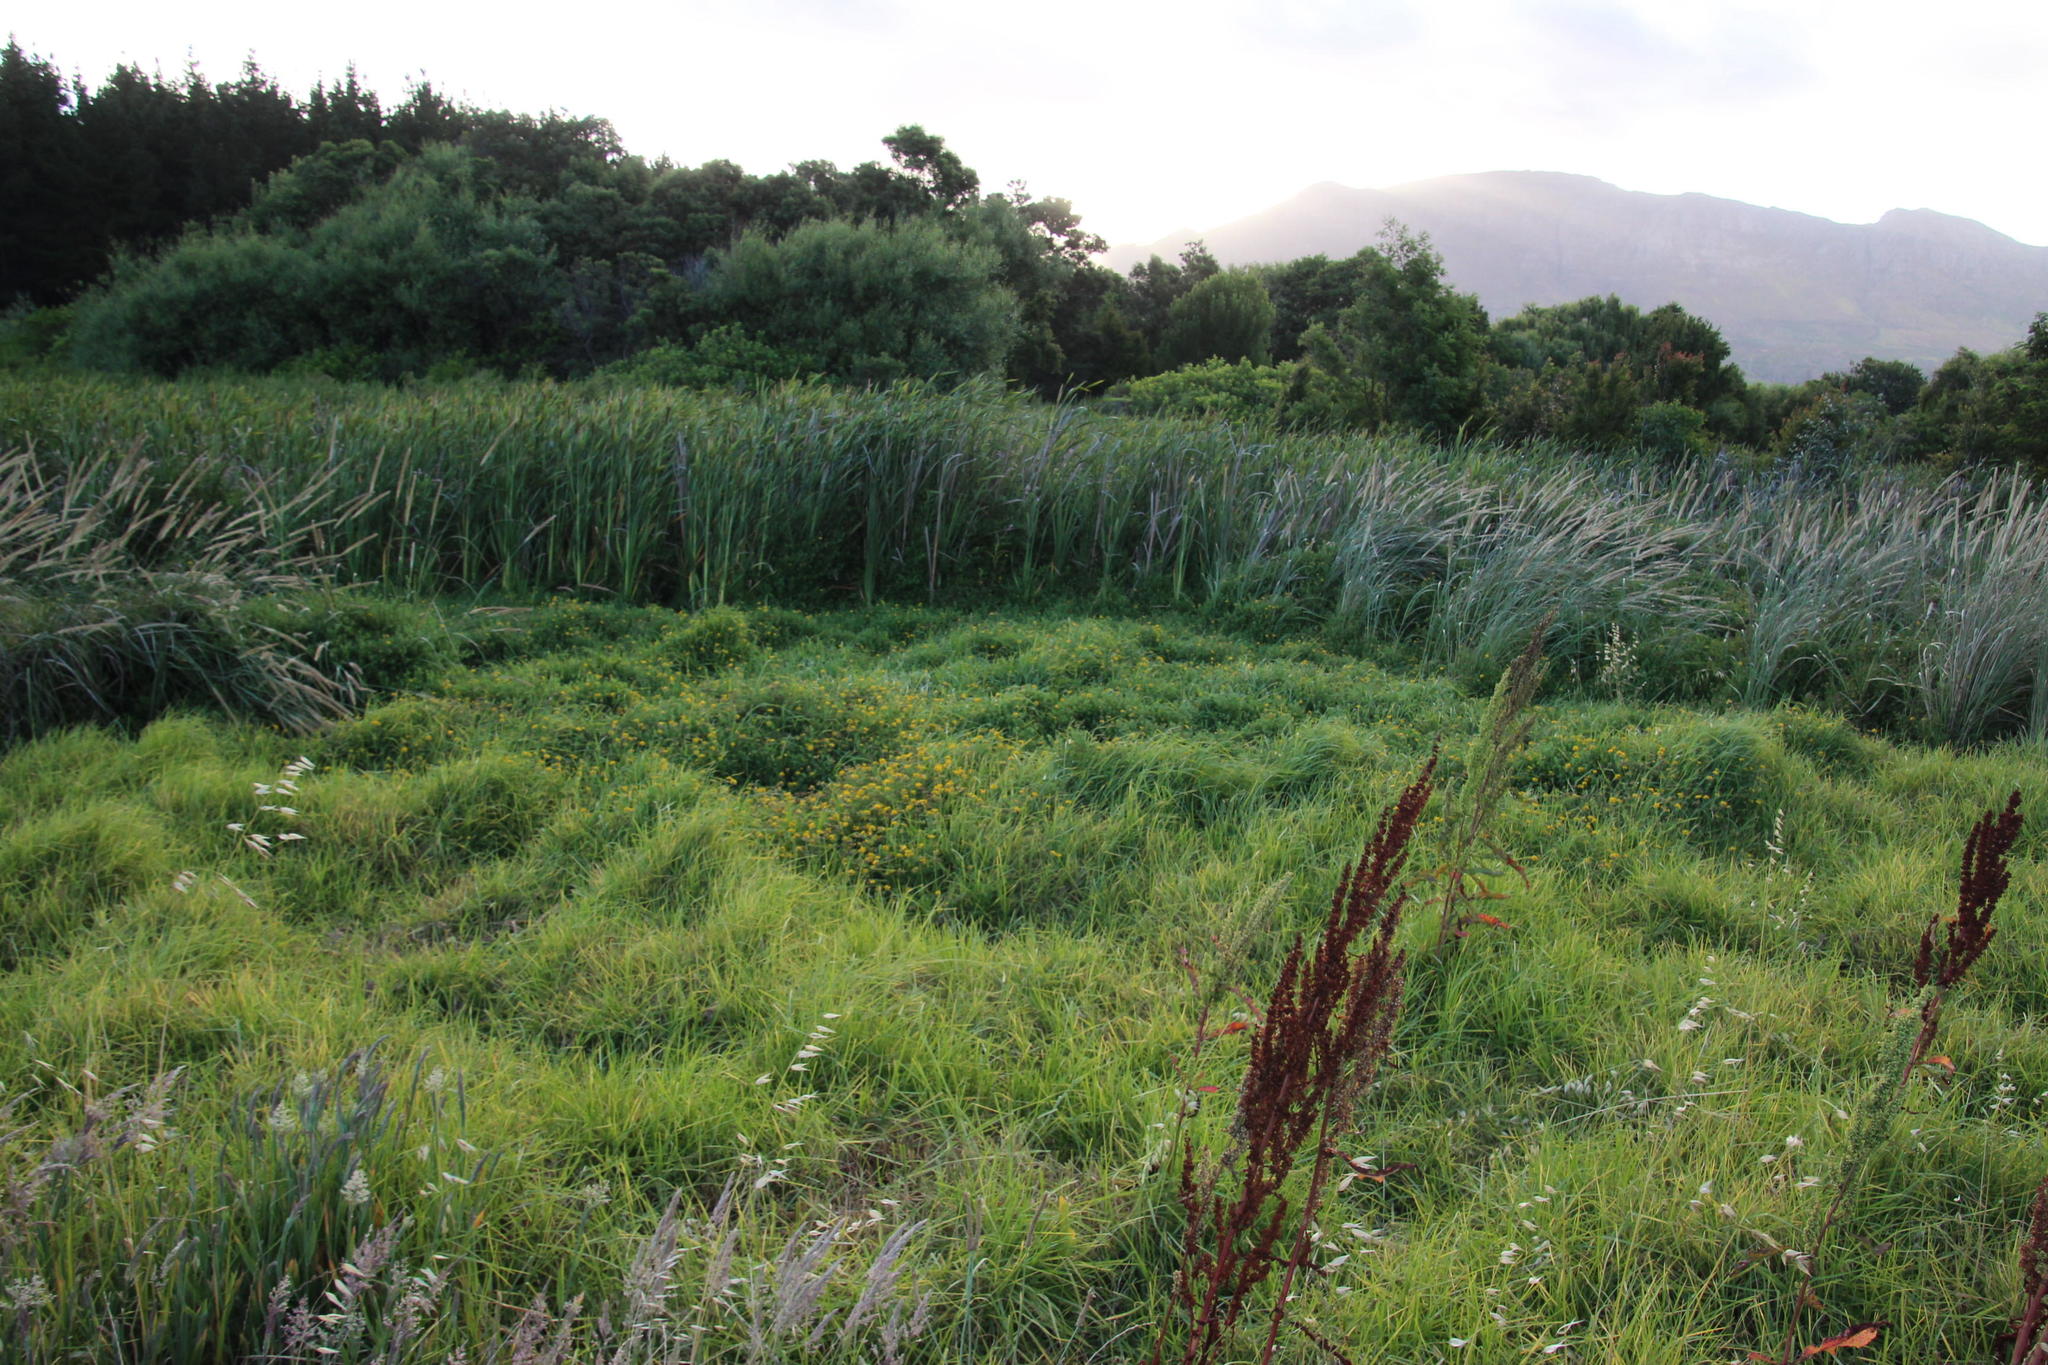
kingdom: Plantae
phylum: Tracheophyta
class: Magnoliopsida
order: Fabales
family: Fabaceae
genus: Lotus
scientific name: Lotus corniculatus
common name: Common bird's-foot-trefoil
